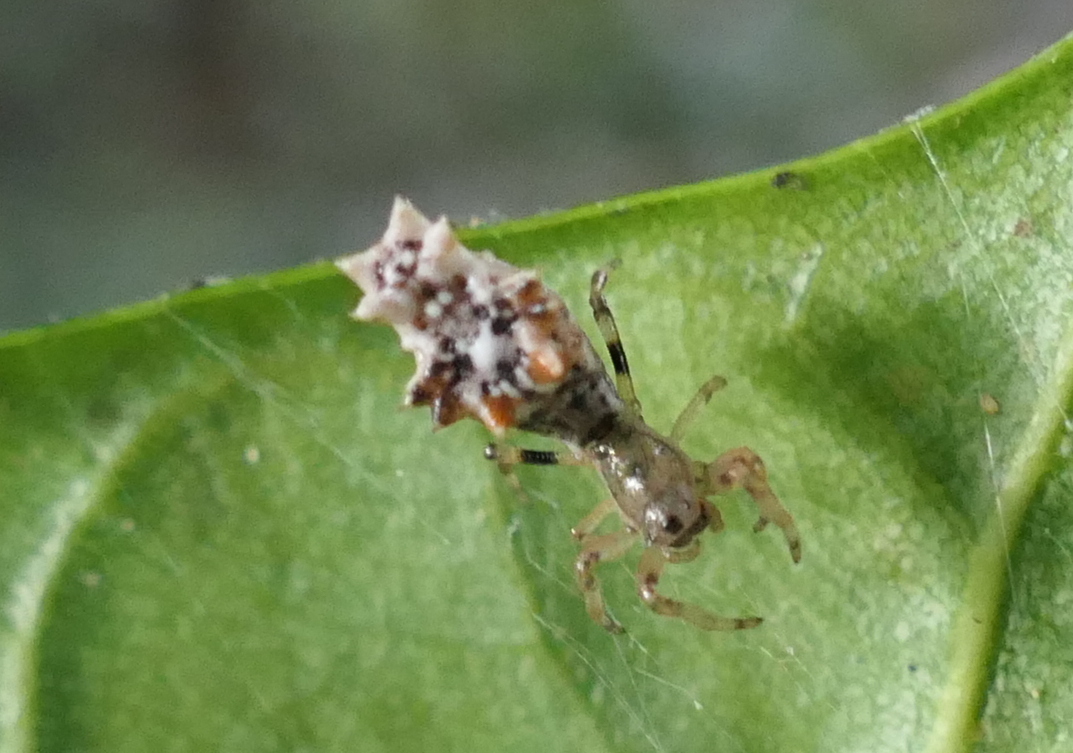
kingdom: Animalia
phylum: Arthropoda
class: Arachnida
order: Araneae
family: Araneidae
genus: Micrathena
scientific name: Micrathena horrida
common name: Orb weavers
